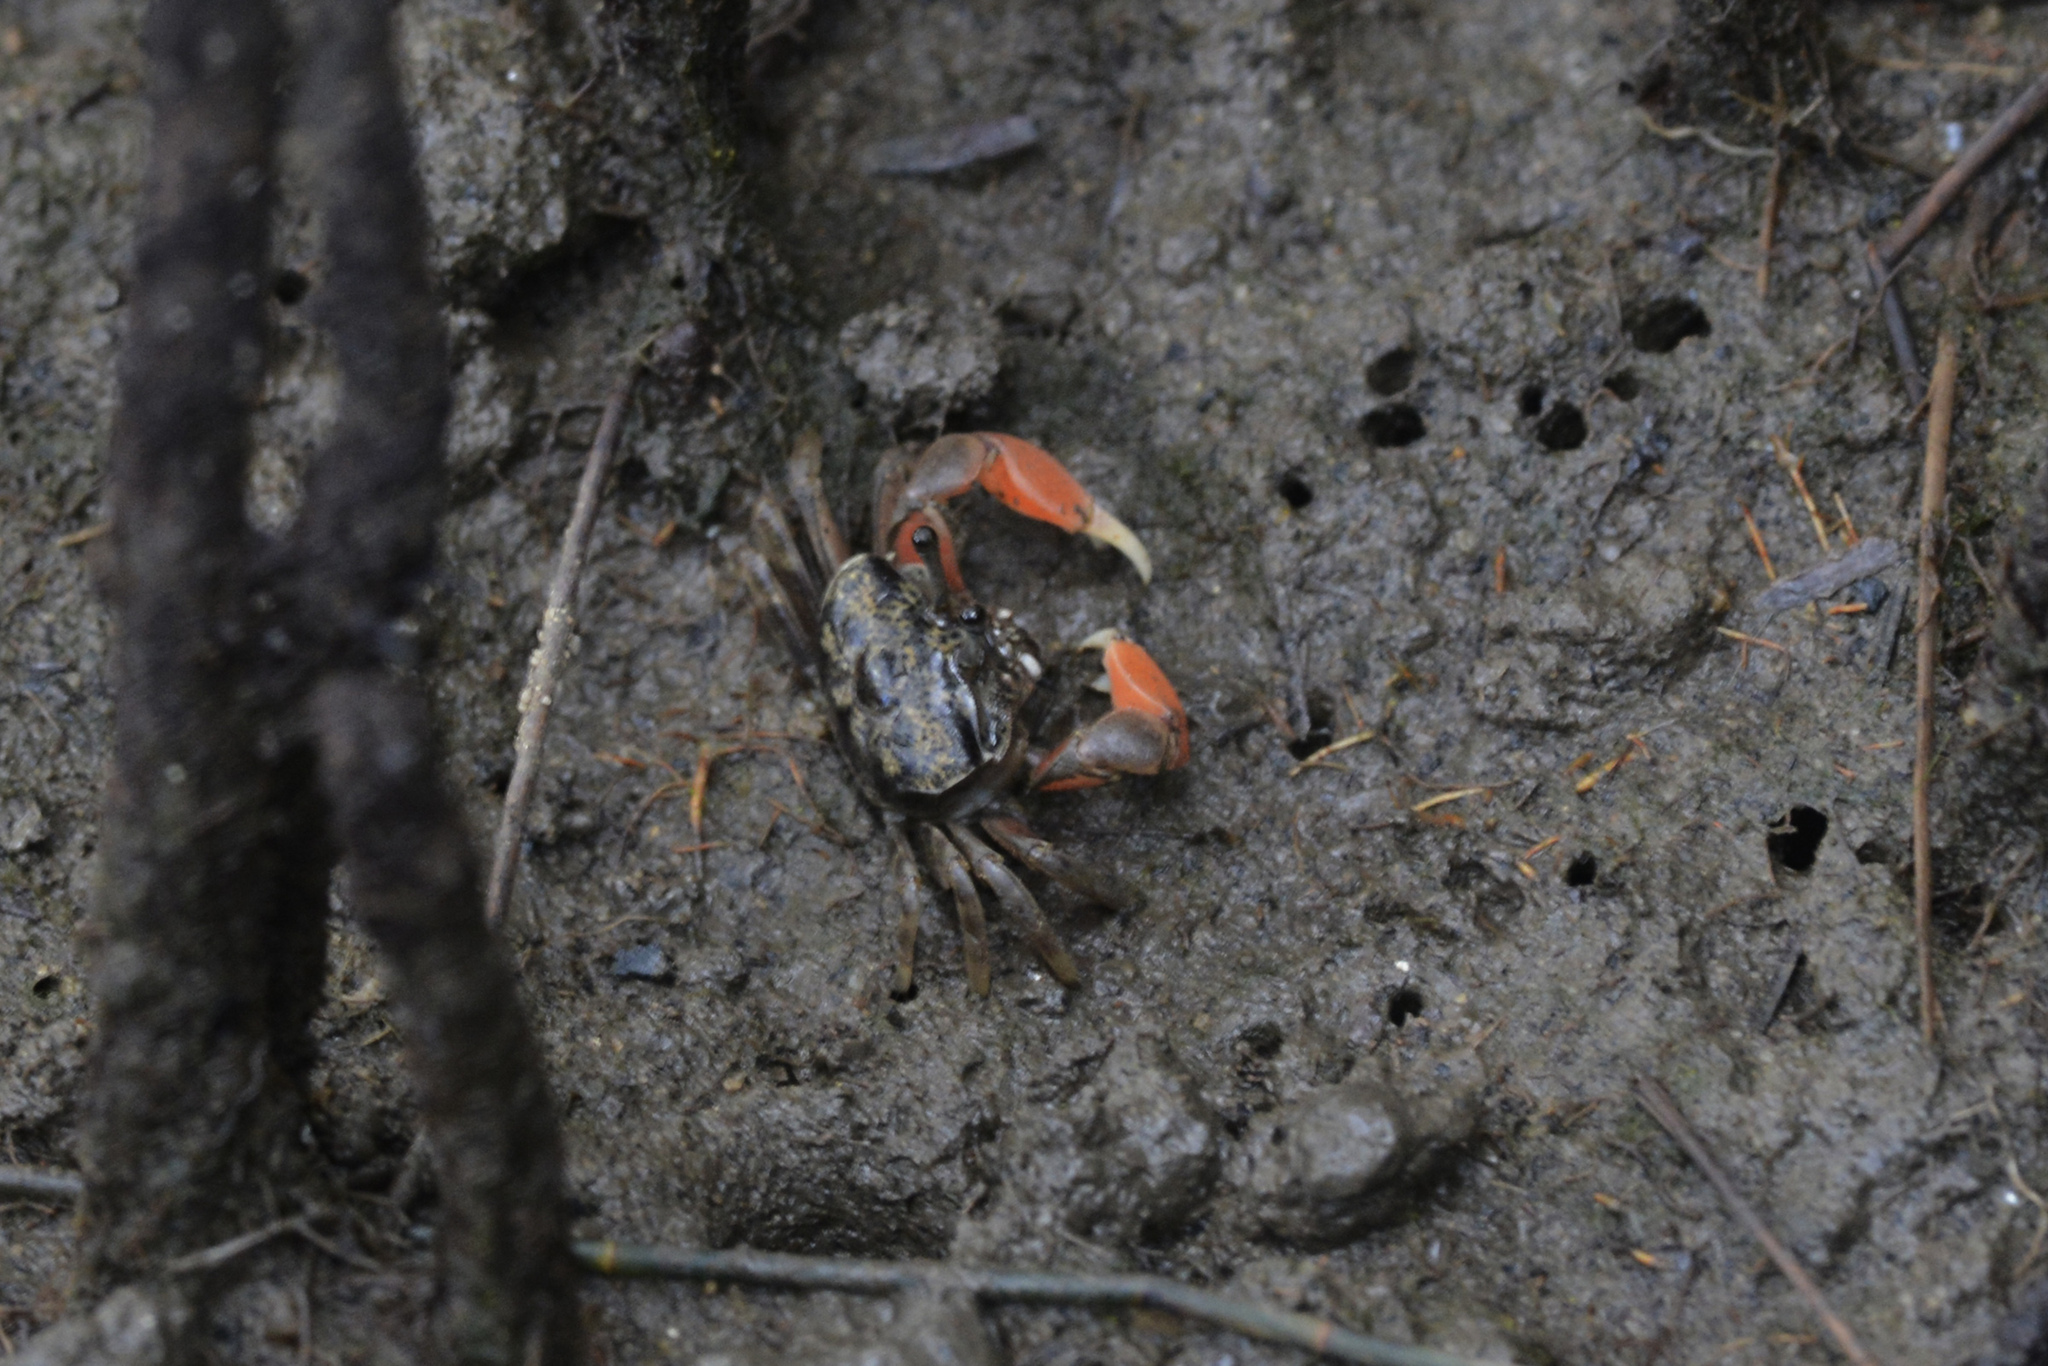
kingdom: Animalia
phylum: Arthropoda
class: Malacostraca
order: Decapoda
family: Heloeciidae
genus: Heloecius
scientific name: Heloecius cordiformis
